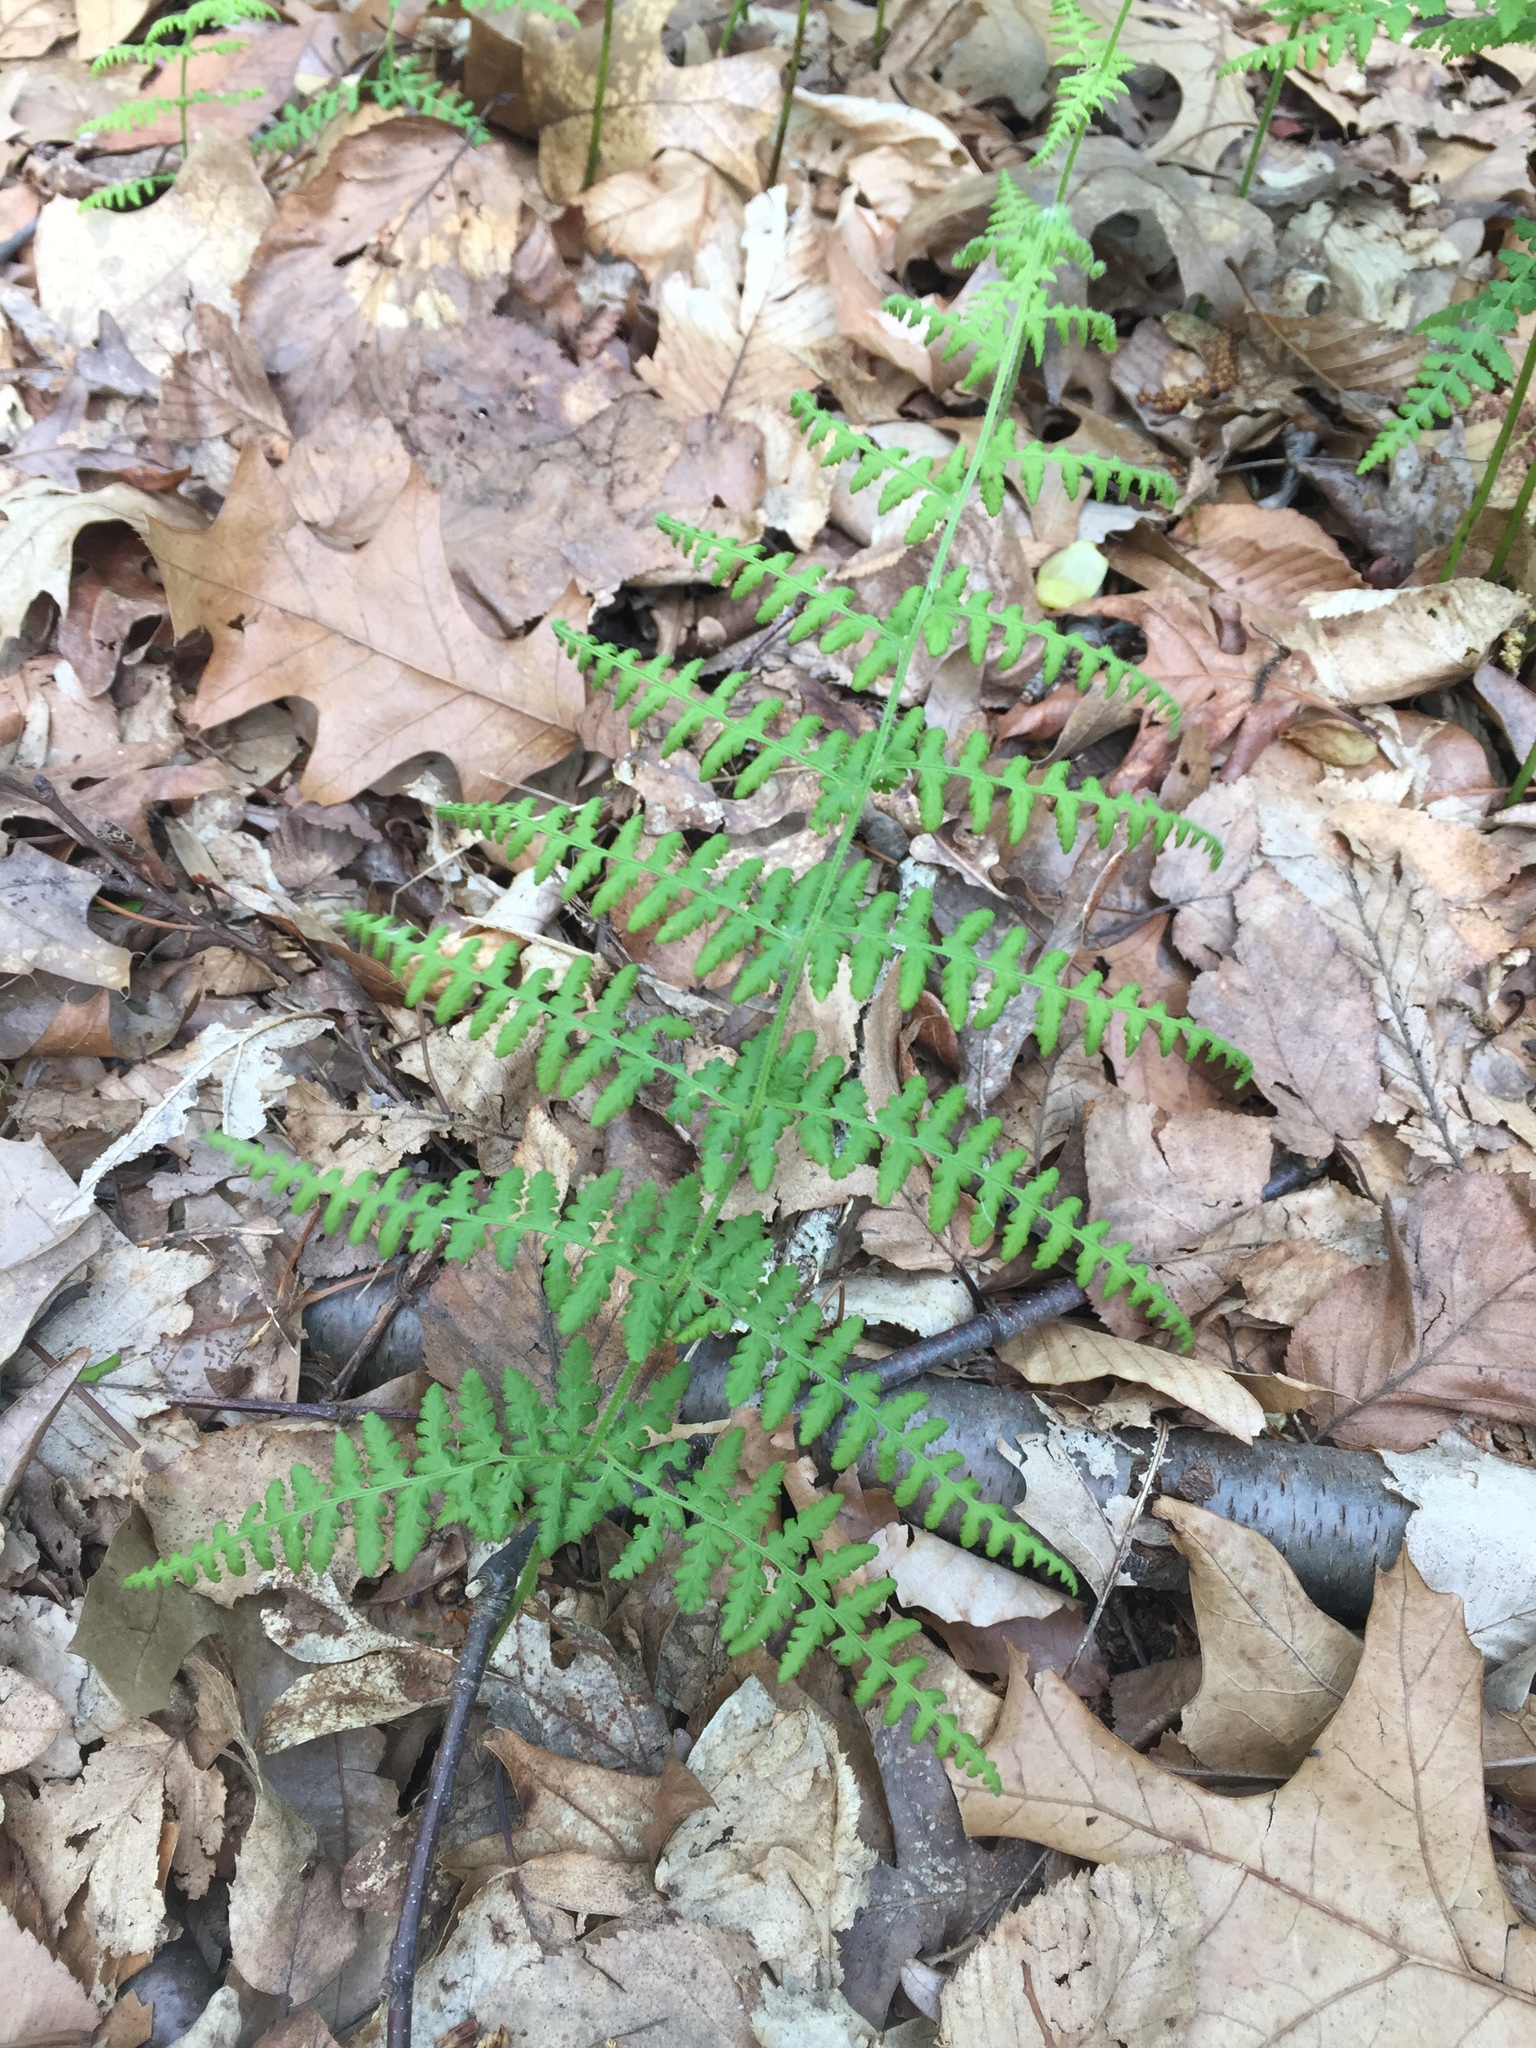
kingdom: Plantae
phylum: Tracheophyta
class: Polypodiopsida
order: Polypodiales
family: Dennstaedtiaceae
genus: Sitobolium
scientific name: Sitobolium punctilobum
